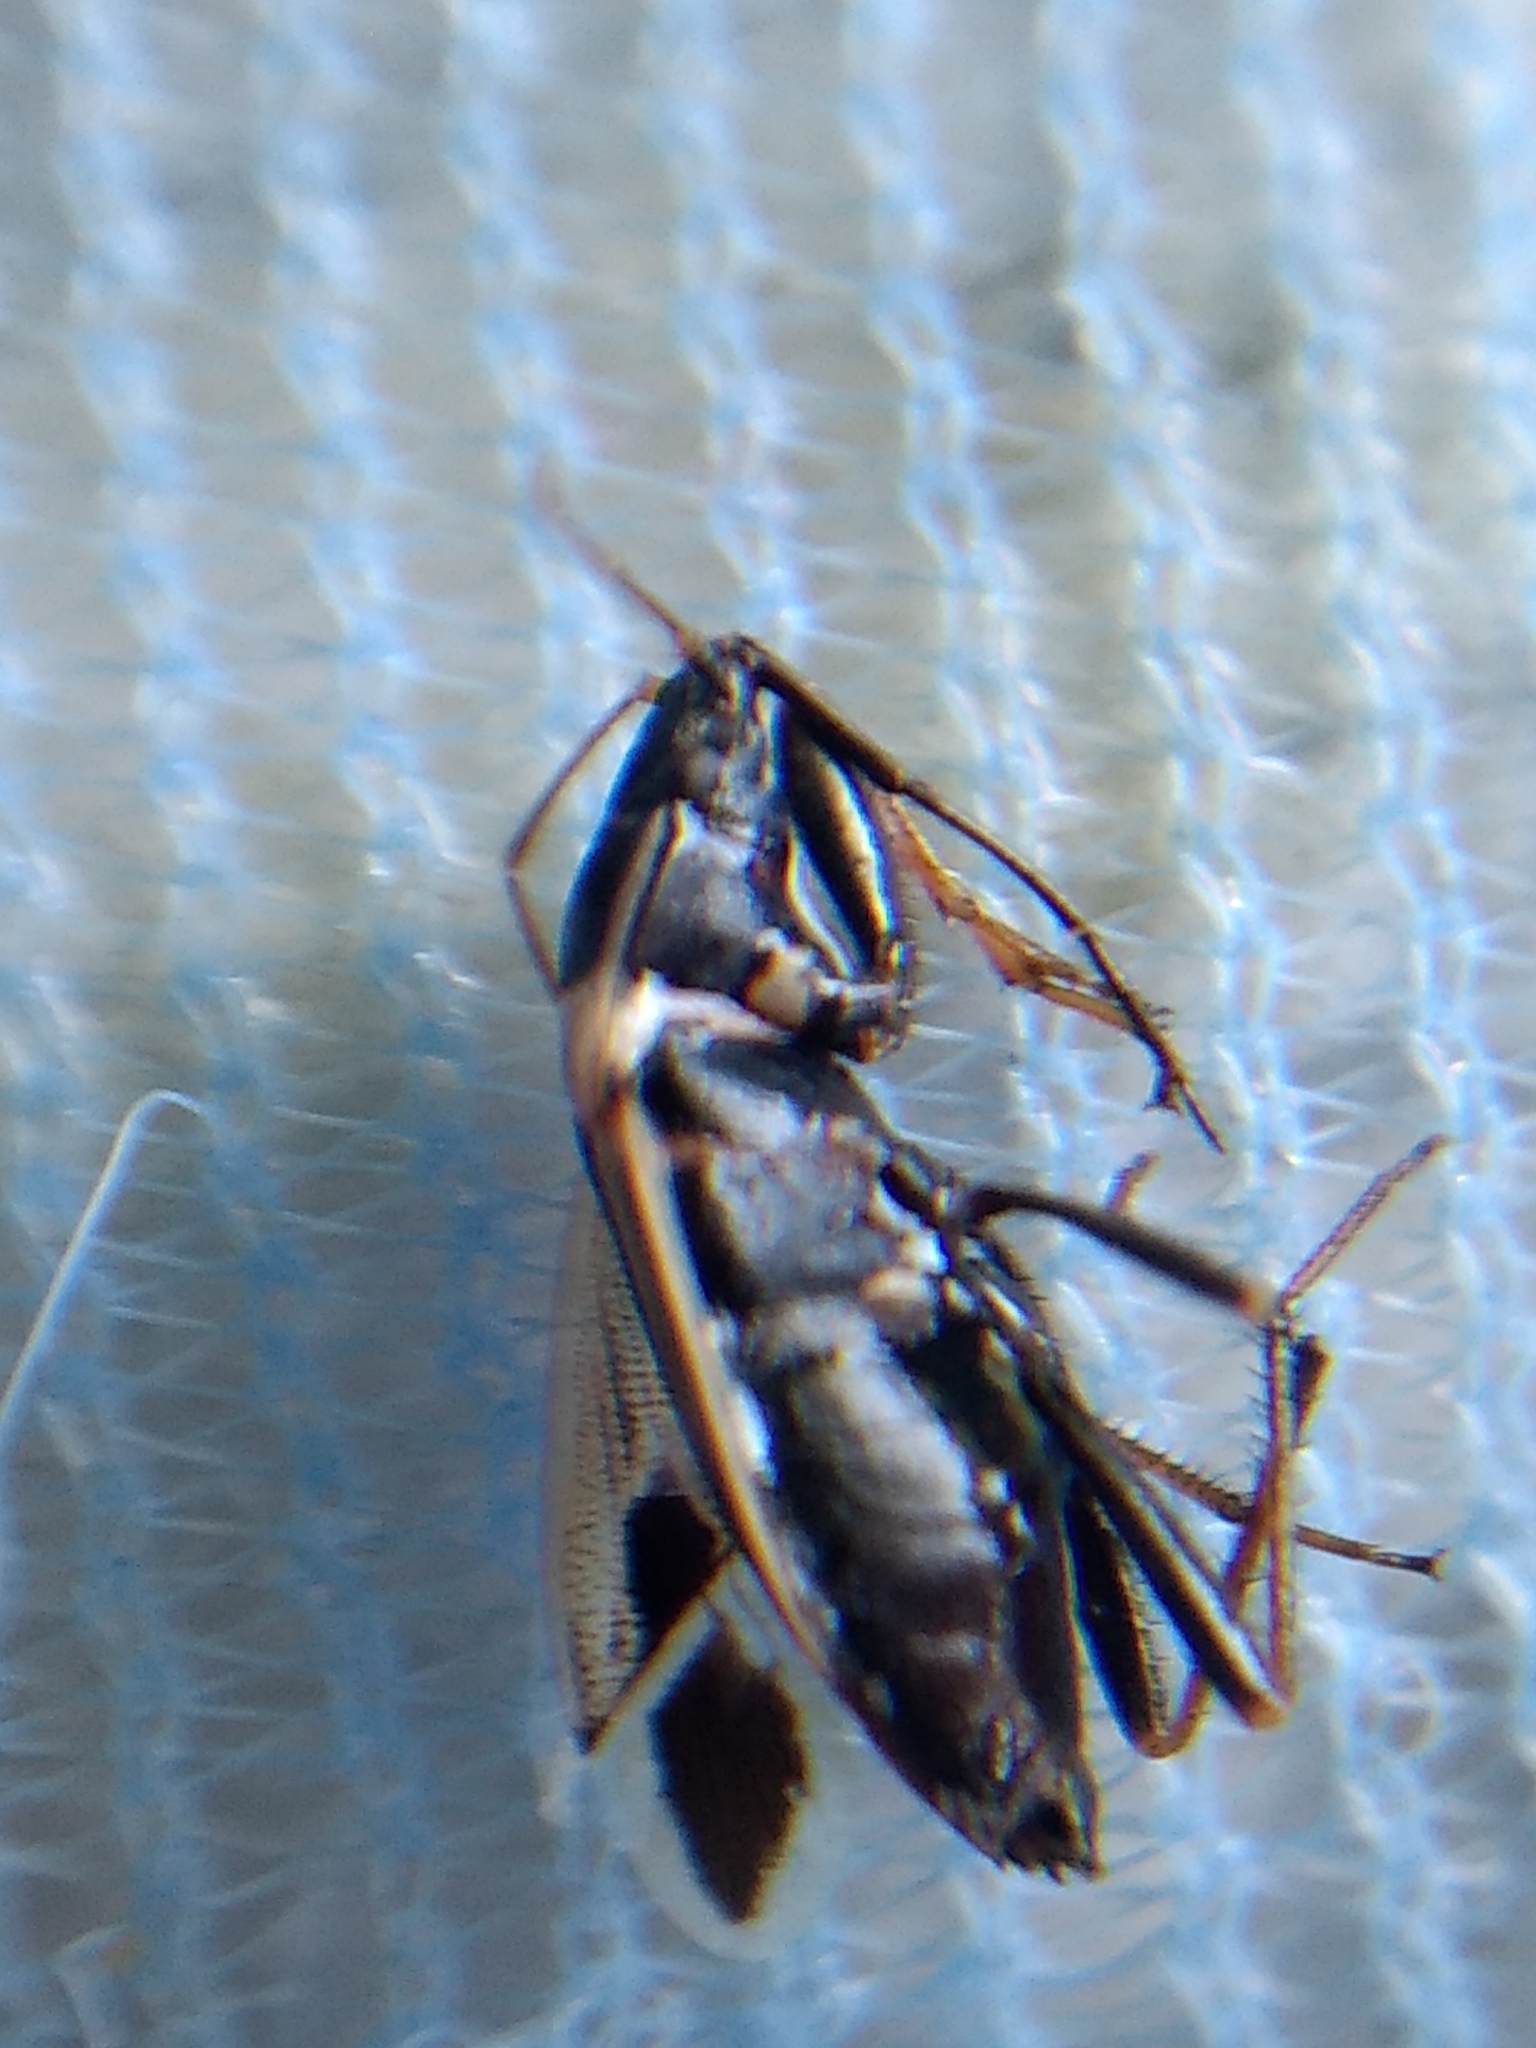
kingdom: Animalia
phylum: Arthropoda
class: Insecta
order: Hemiptera
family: Rhyparochromidae
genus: Xanthochilus
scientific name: Xanthochilus saturnius
